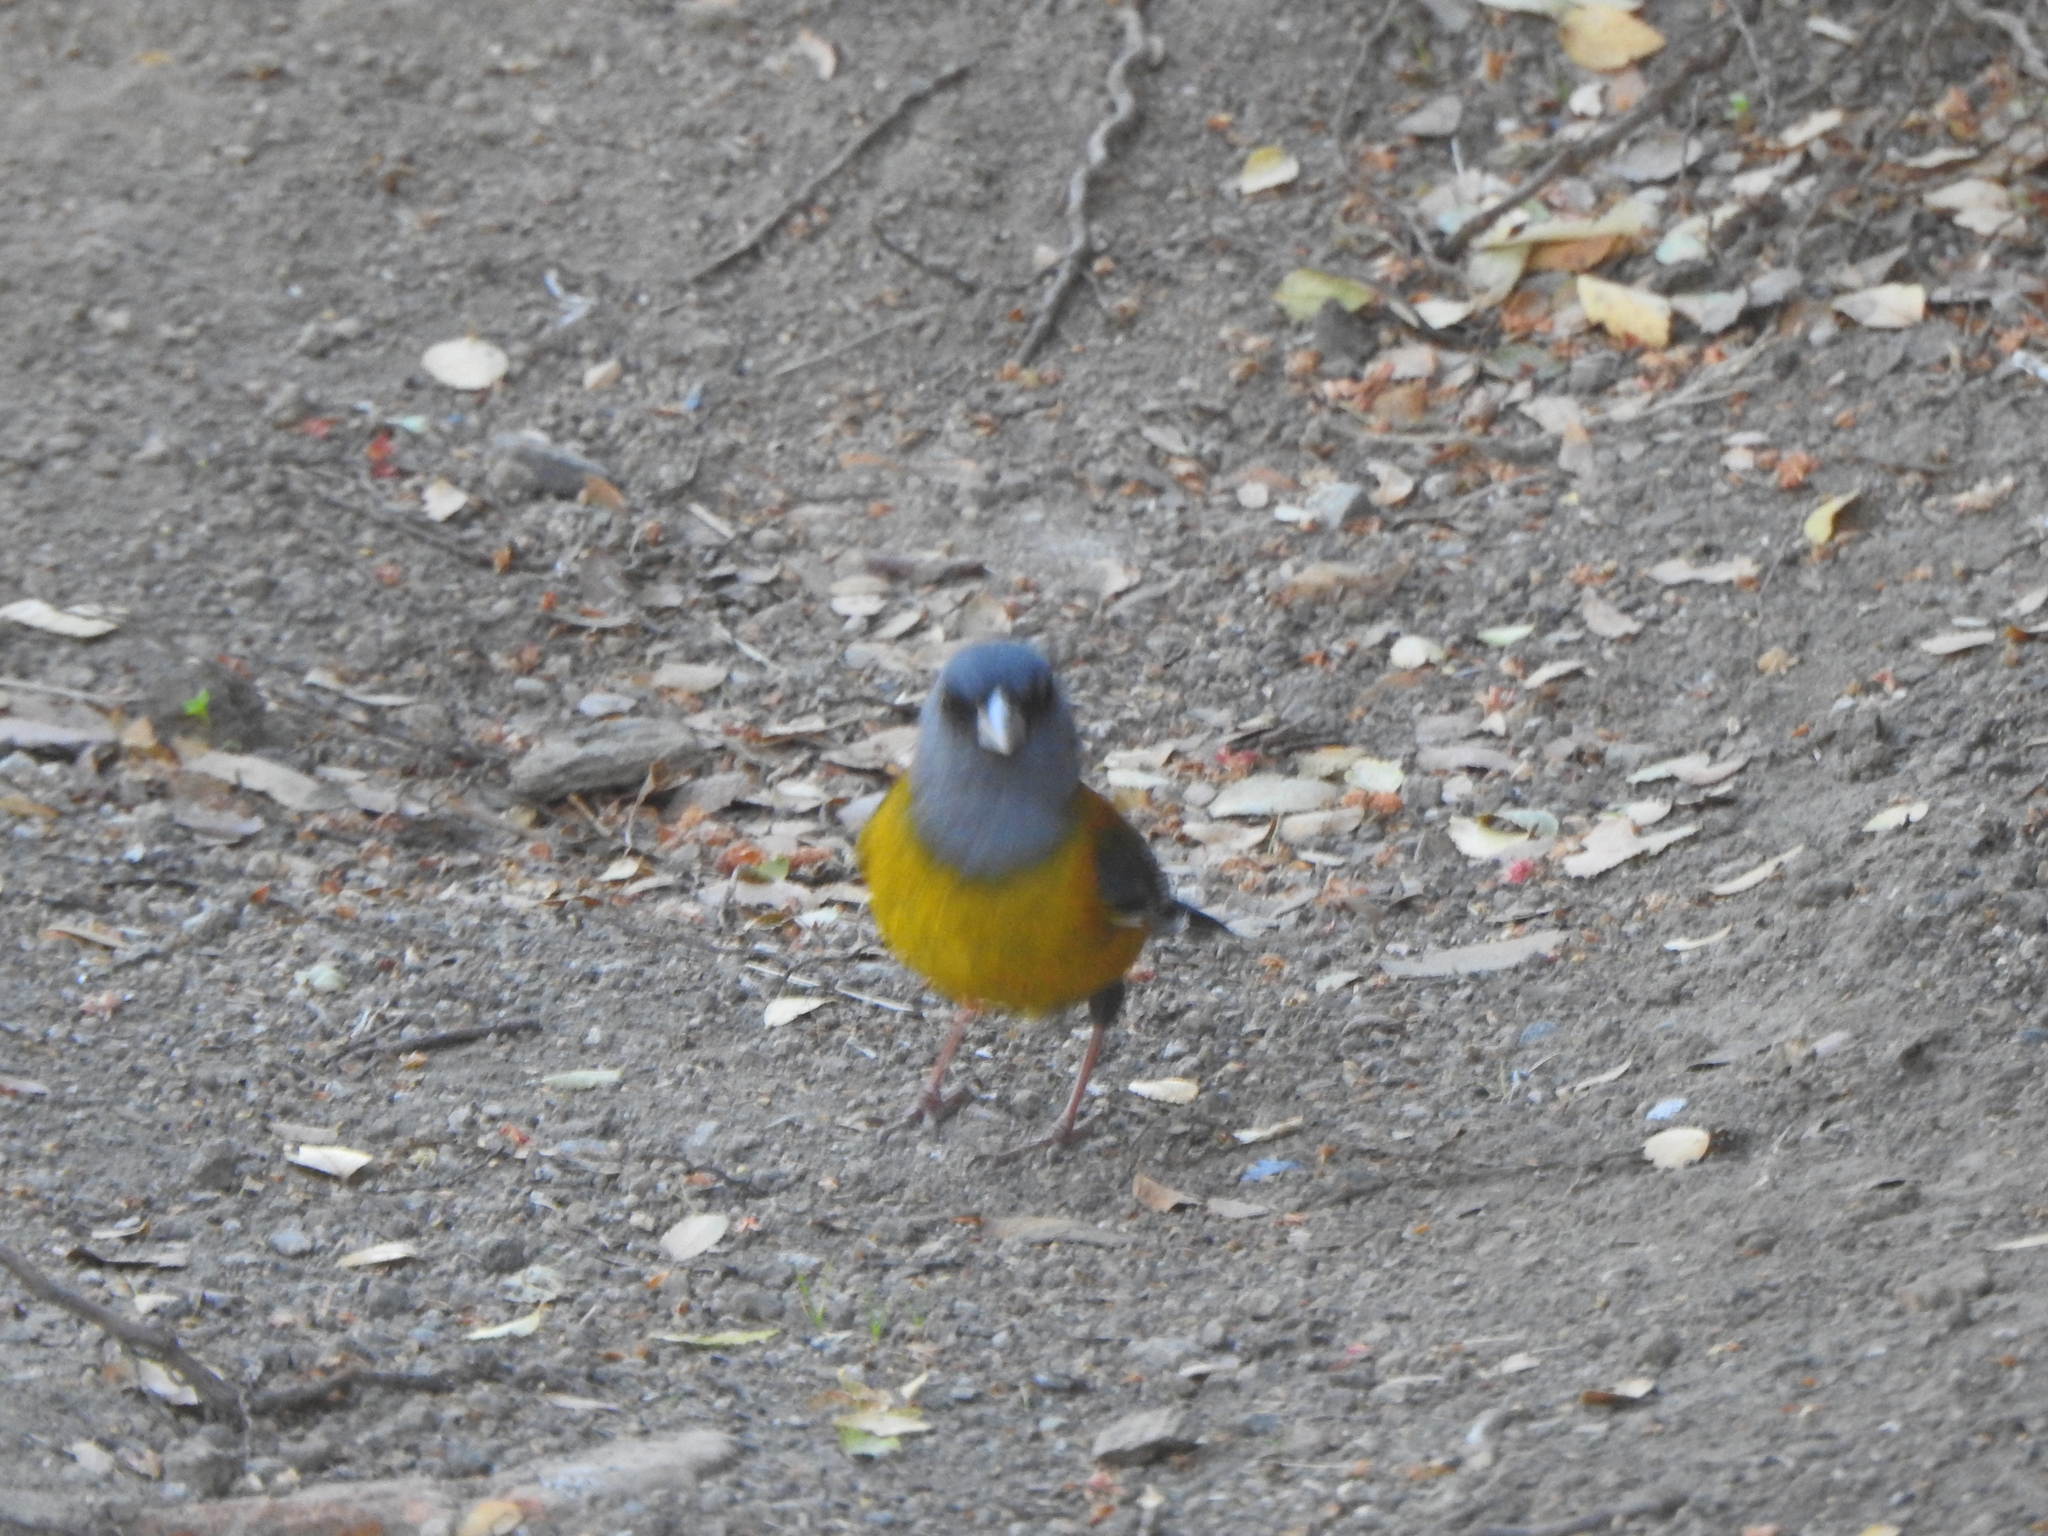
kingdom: Animalia
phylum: Chordata
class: Aves
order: Passeriformes
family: Thraupidae
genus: Phrygilus
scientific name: Phrygilus patagonicus
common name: Patagonian sierra finch
